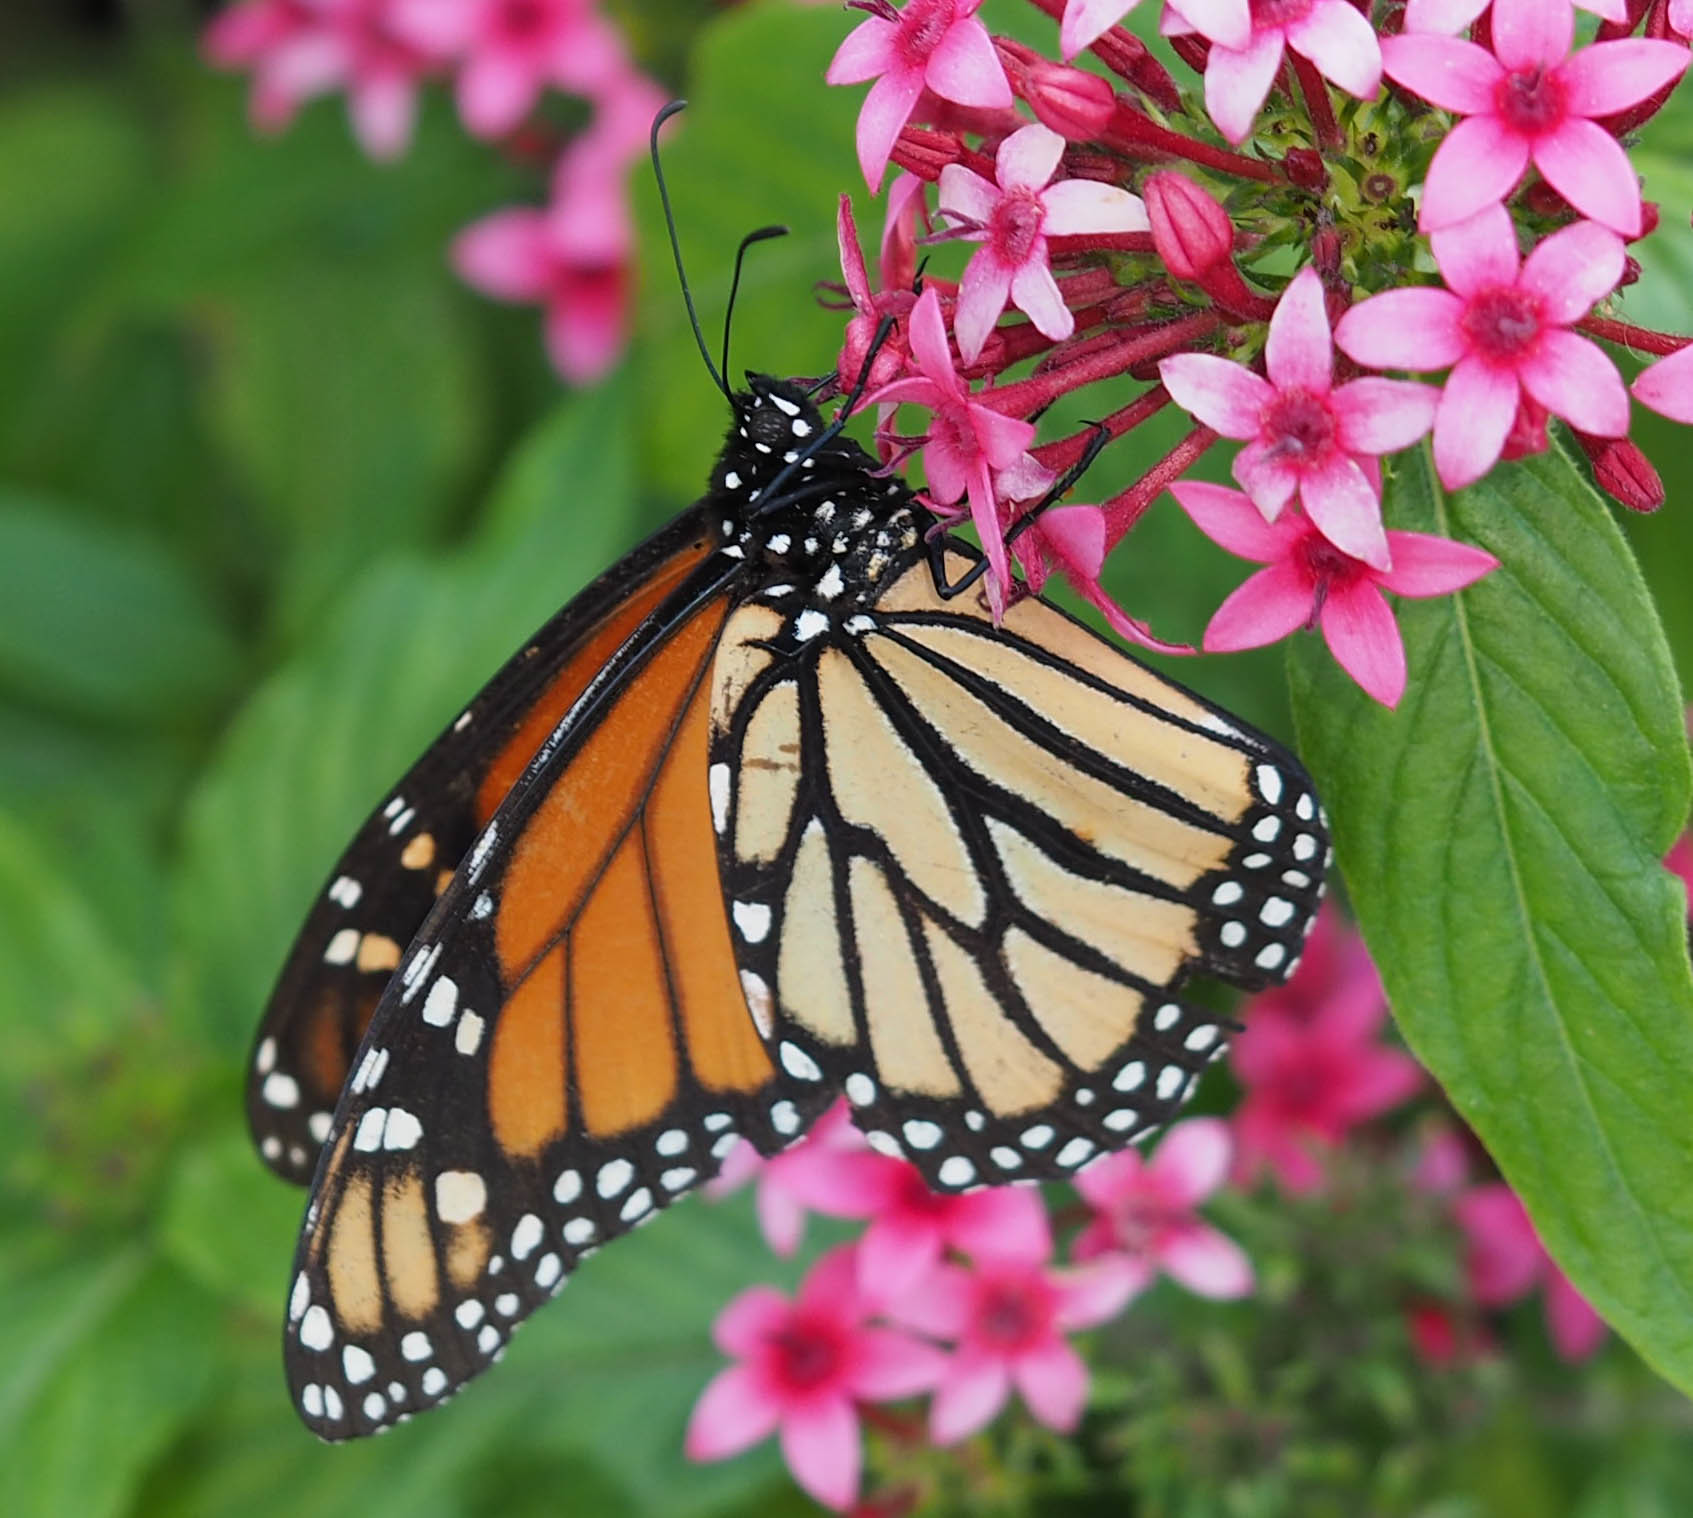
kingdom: Animalia
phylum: Arthropoda
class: Insecta
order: Lepidoptera
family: Nymphalidae
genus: Danaus
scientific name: Danaus plexippus
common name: Monarch
